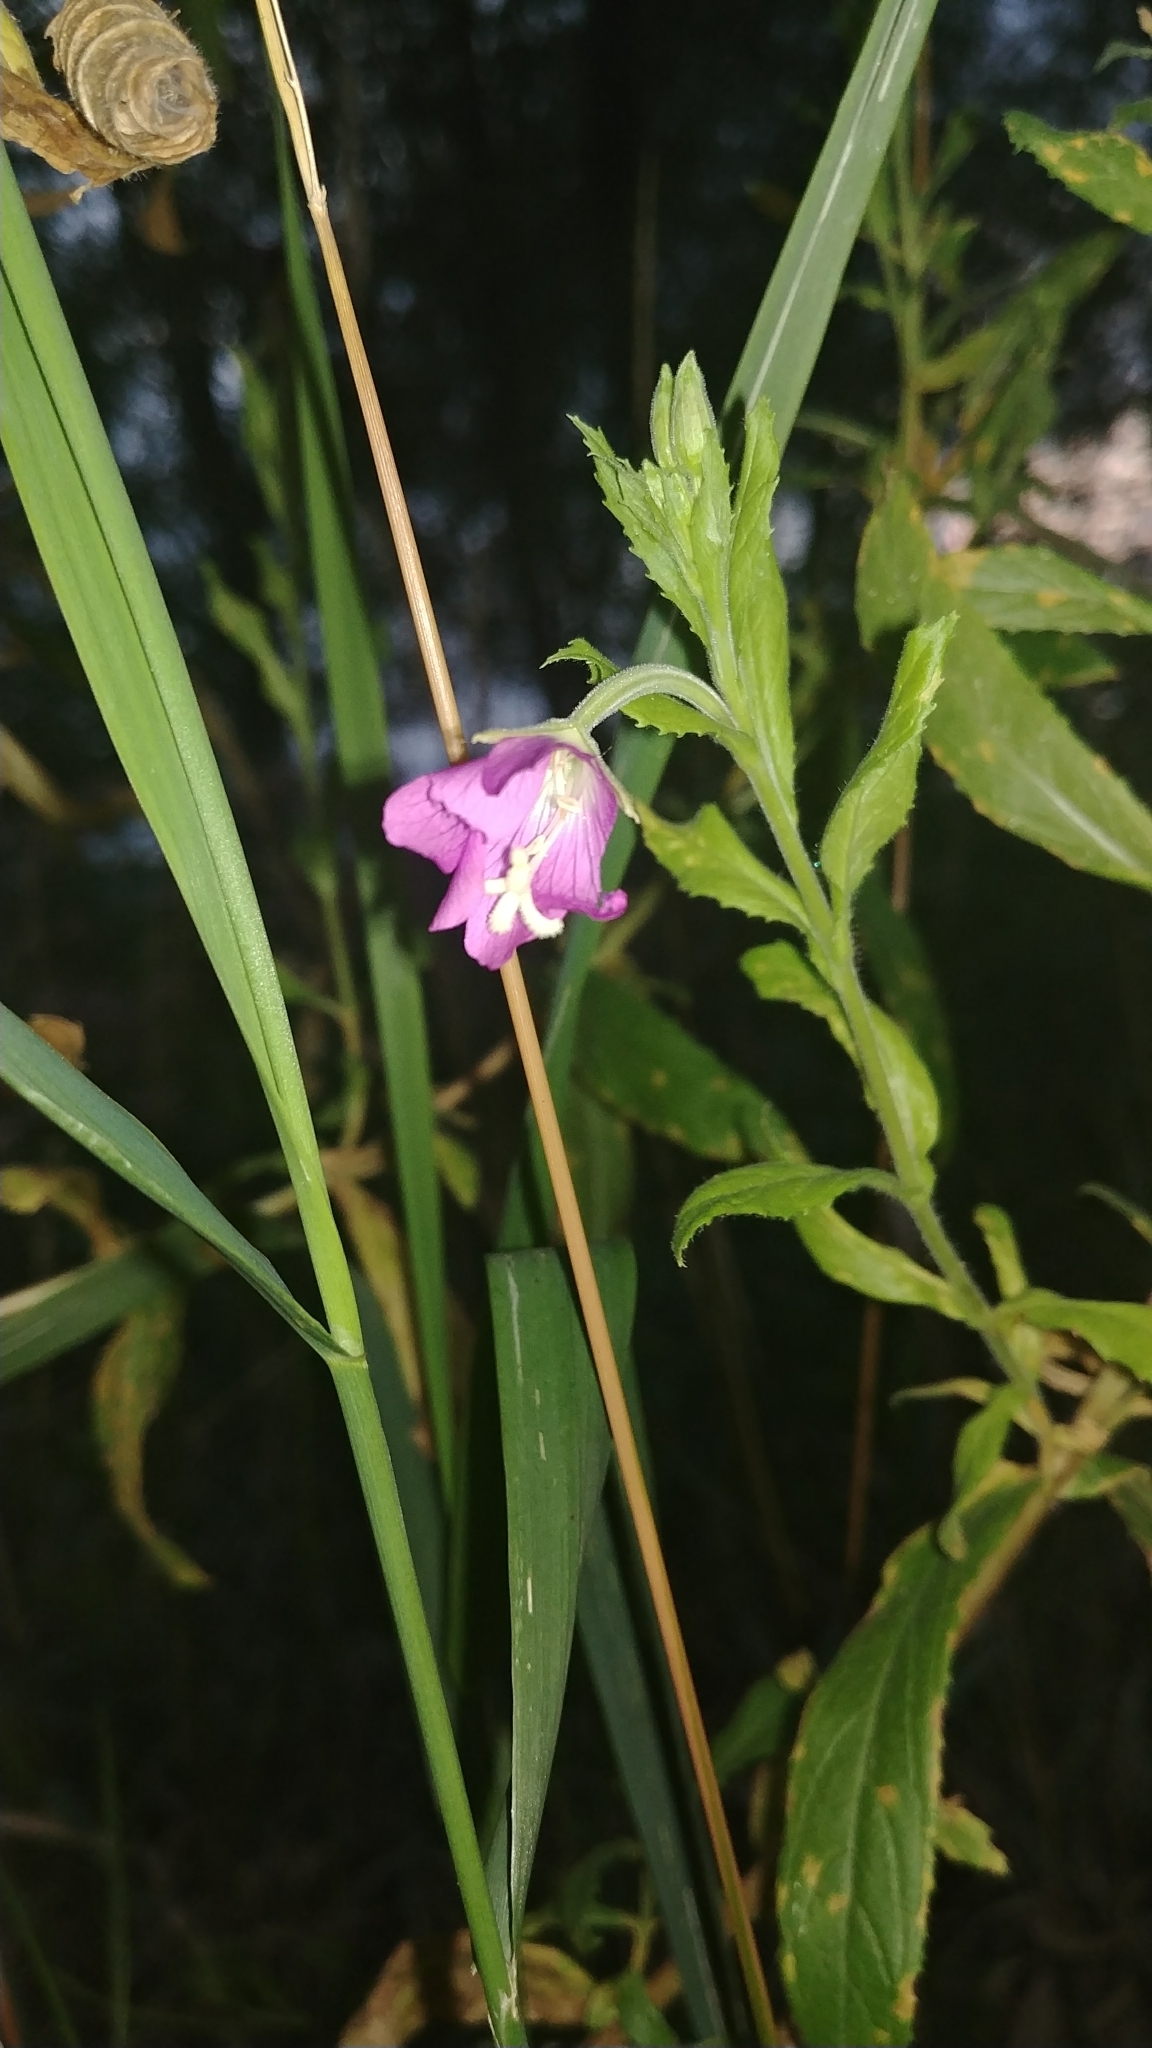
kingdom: Plantae
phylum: Tracheophyta
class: Magnoliopsida
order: Myrtales
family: Onagraceae
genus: Epilobium
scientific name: Epilobium hirsutum
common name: Great willowherb
